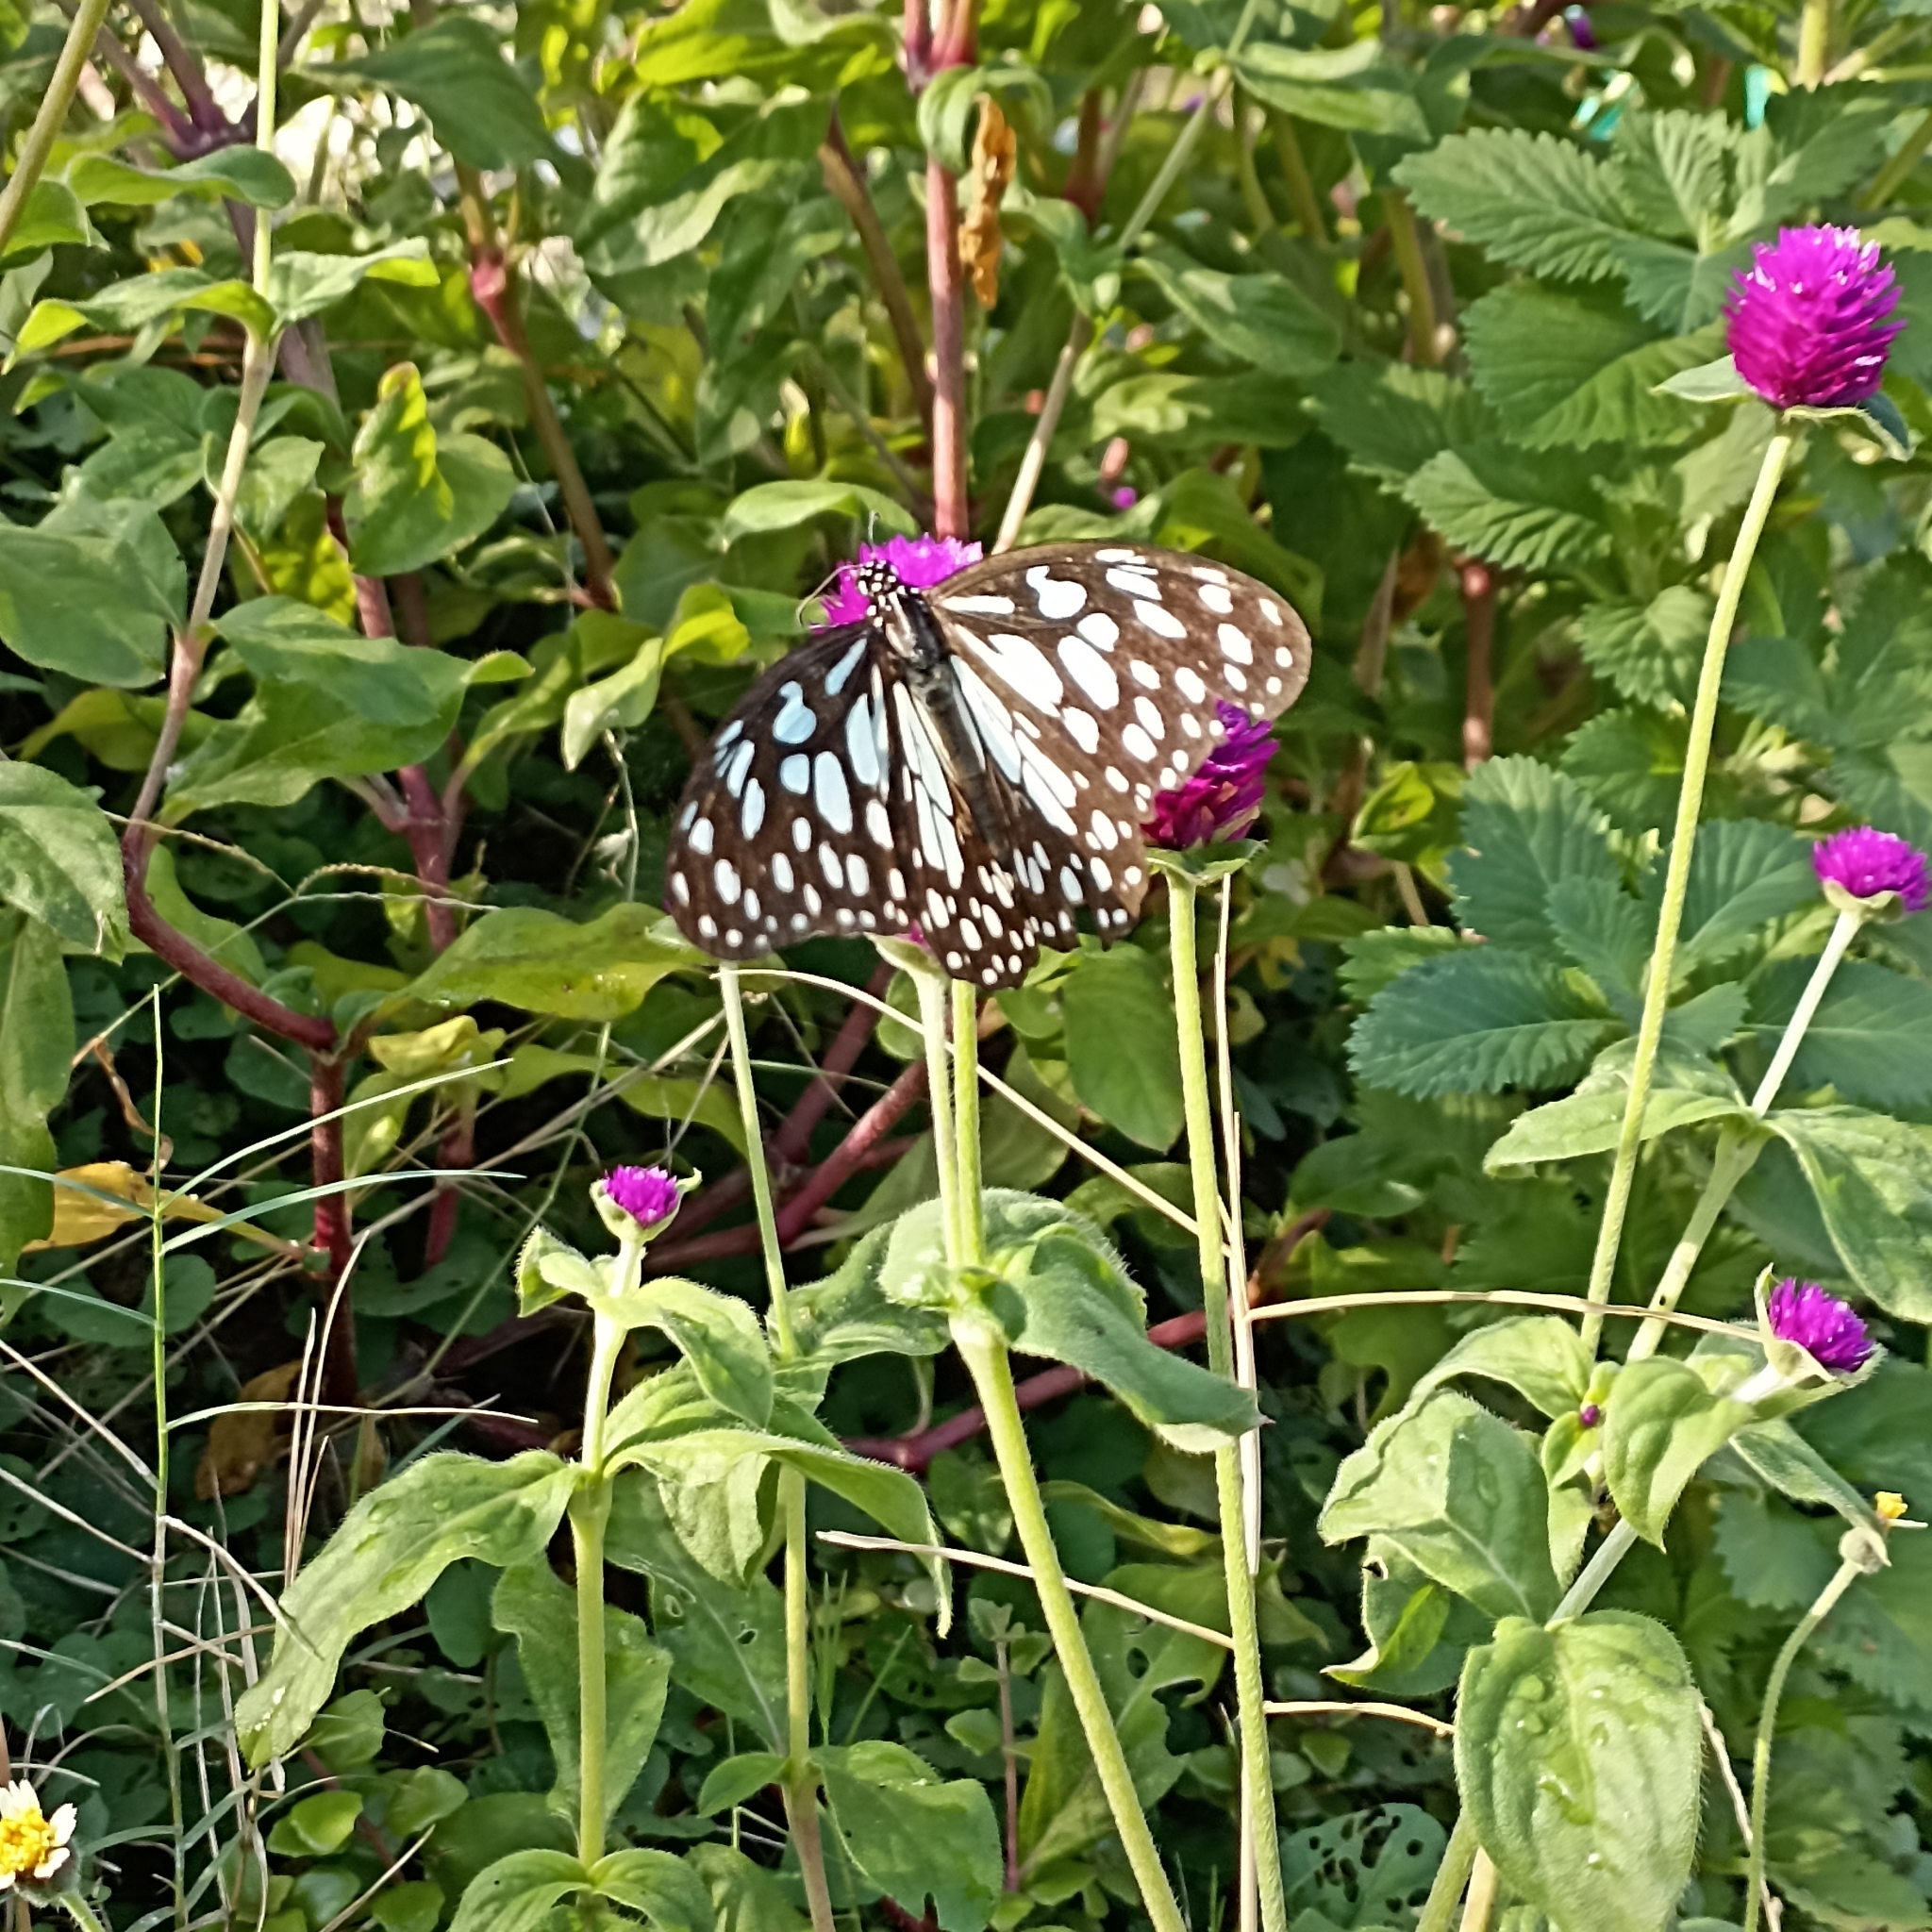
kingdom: Animalia
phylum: Arthropoda
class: Insecta
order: Lepidoptera
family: Nymphalidae
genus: Tirumala
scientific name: Tirumala limniace
